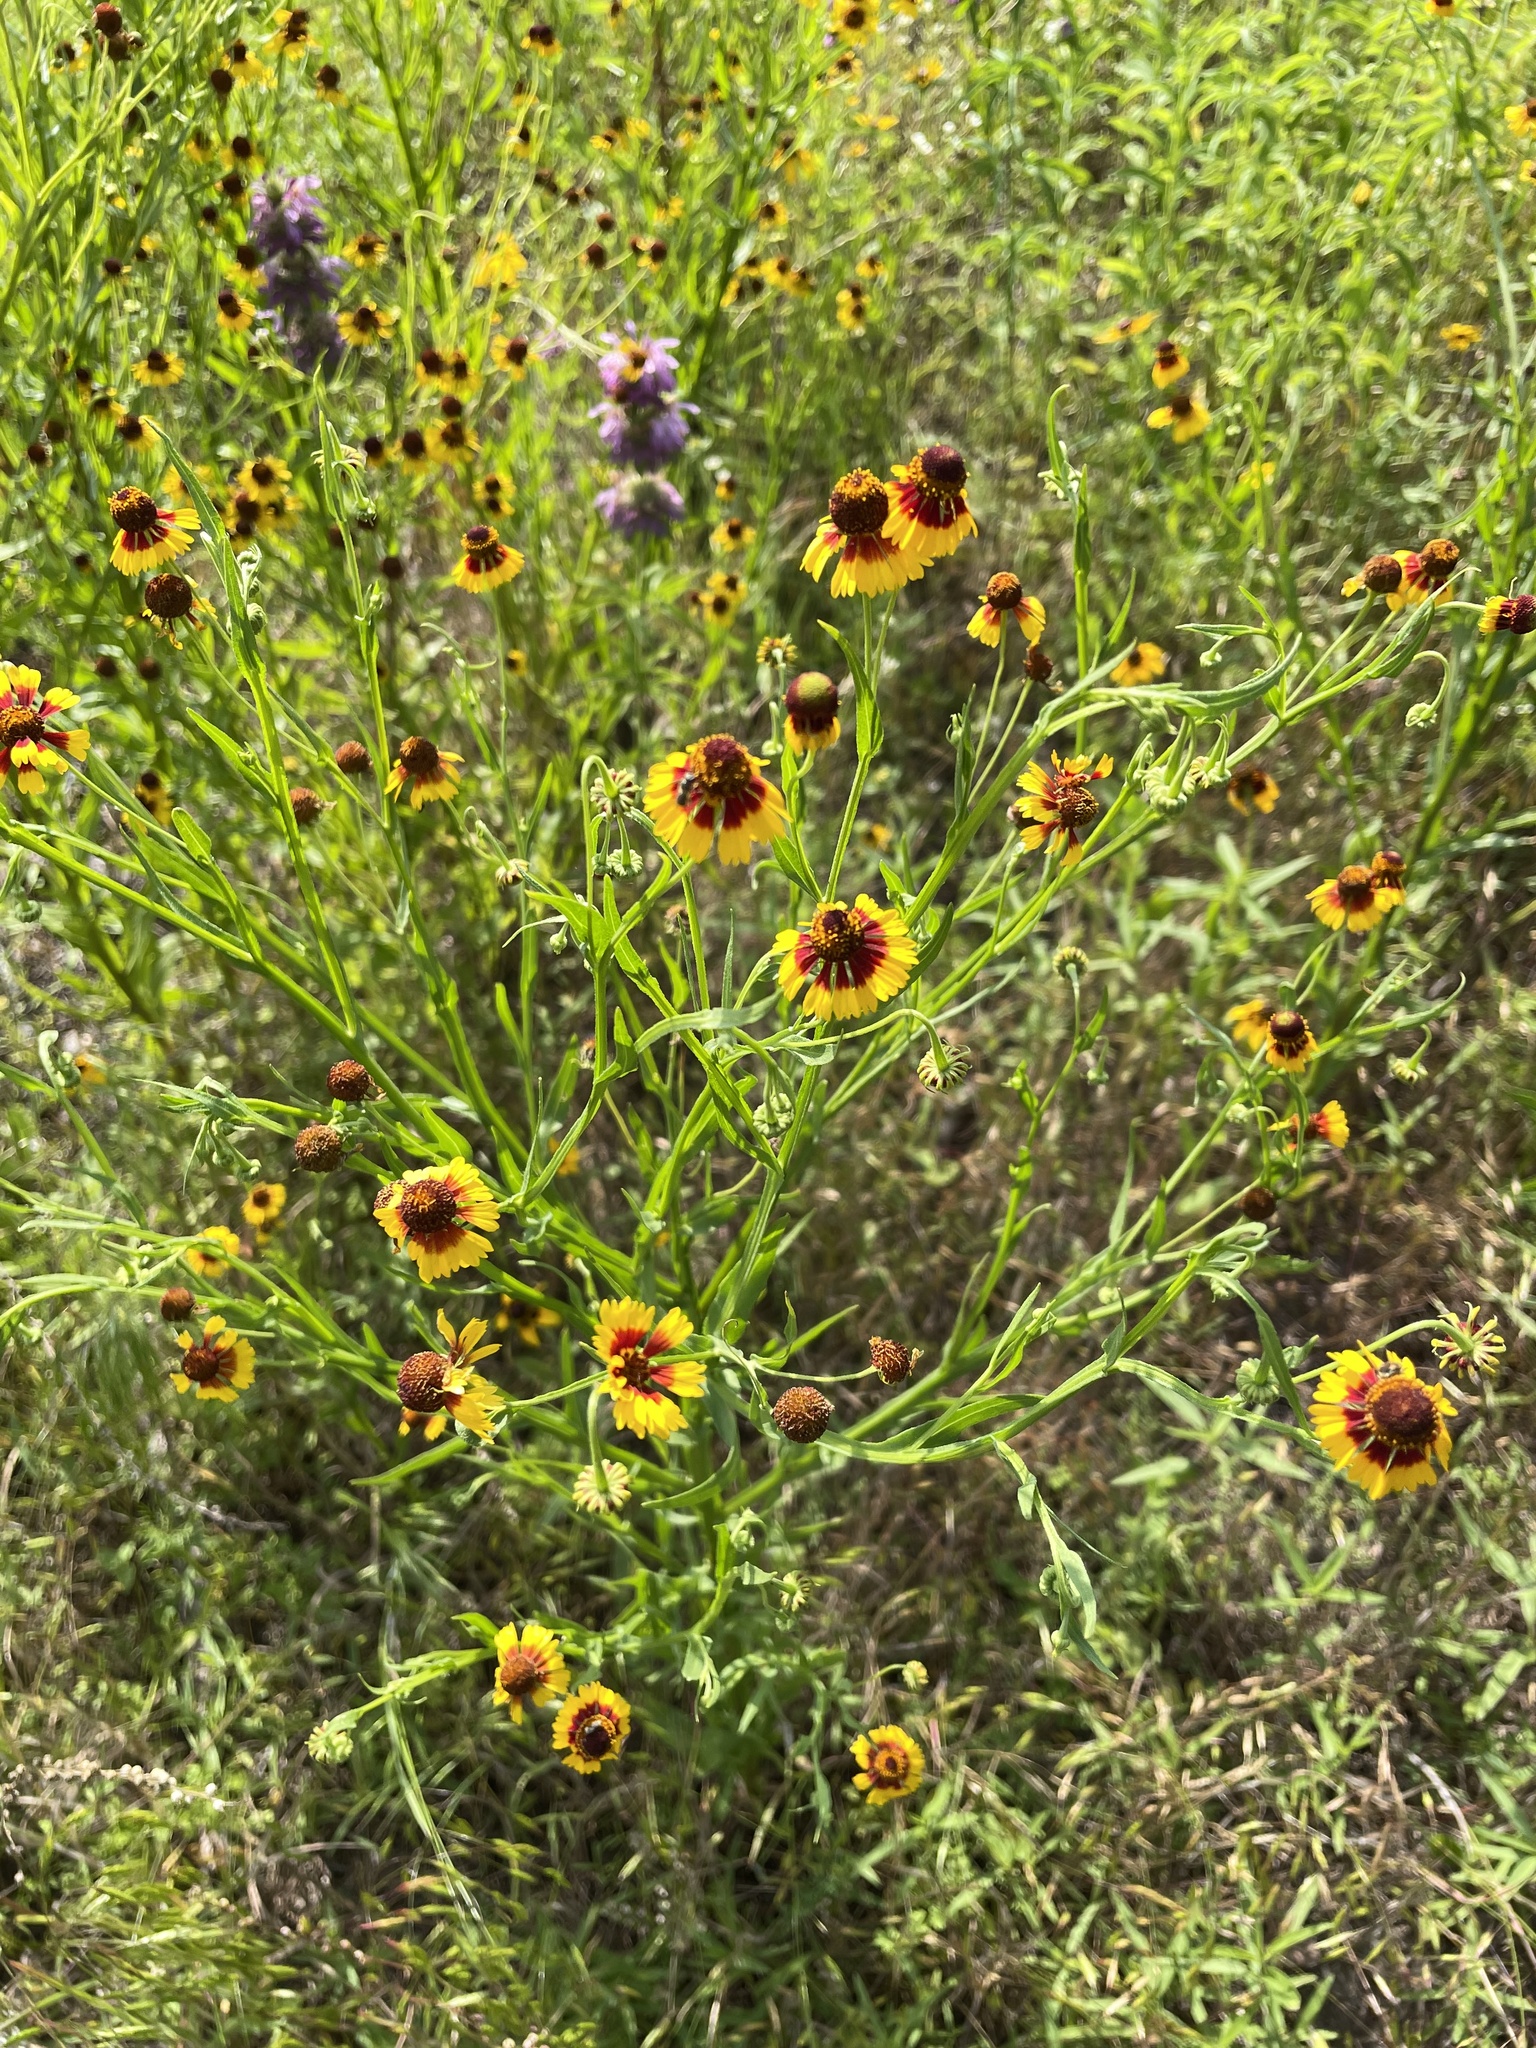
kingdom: Plantae
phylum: Tracheophyta
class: Magnoliopsida
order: Asterales
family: Asteraceae
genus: Helenium
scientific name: Helenium elegans
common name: Pretty sneezeweed
